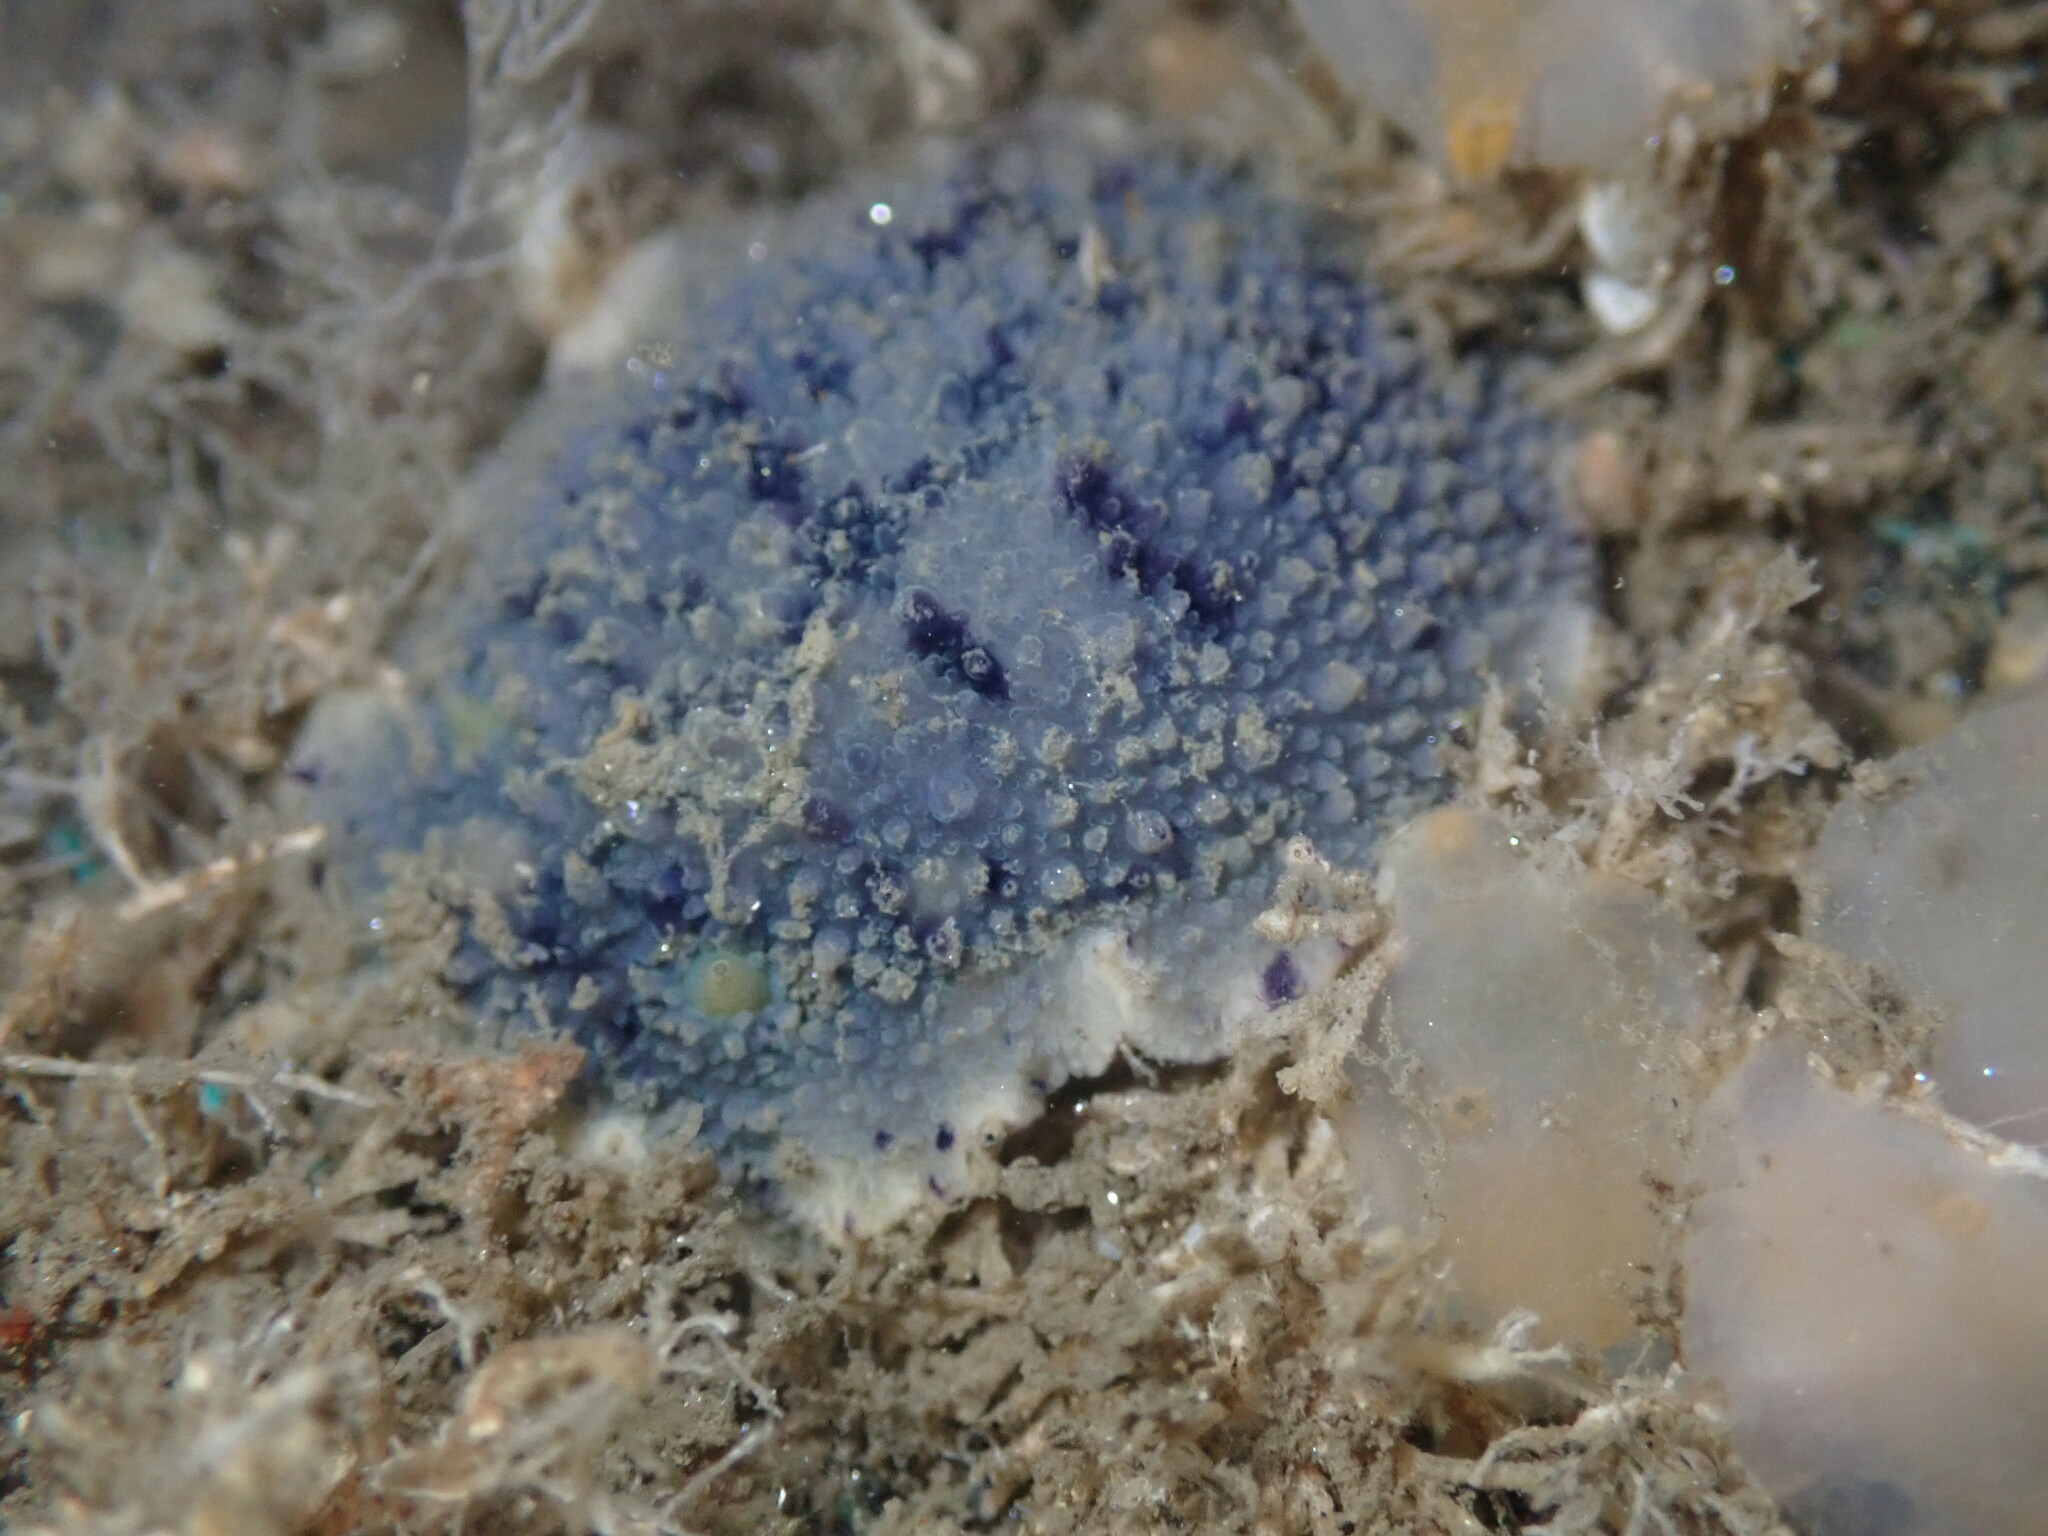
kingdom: Animalia
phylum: Mollusca
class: Gastropoda
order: Nudibranchia
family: Dorididae
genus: Doris
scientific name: Doris montereyensis
